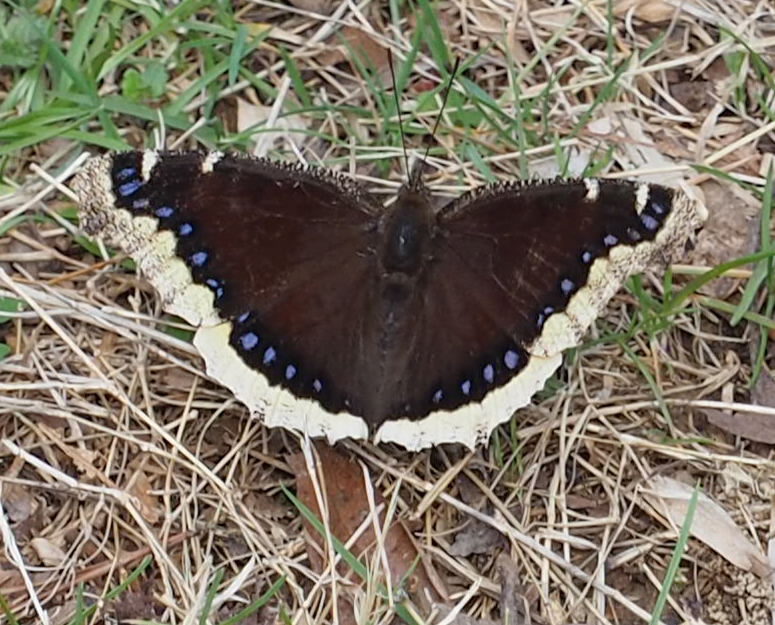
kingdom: Animalia
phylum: Arthropoda
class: Insecta
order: Lepidoptera
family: Nymphalidae
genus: Nymphalis
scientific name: Nymphalis antiopa
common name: Camberwell beauty
